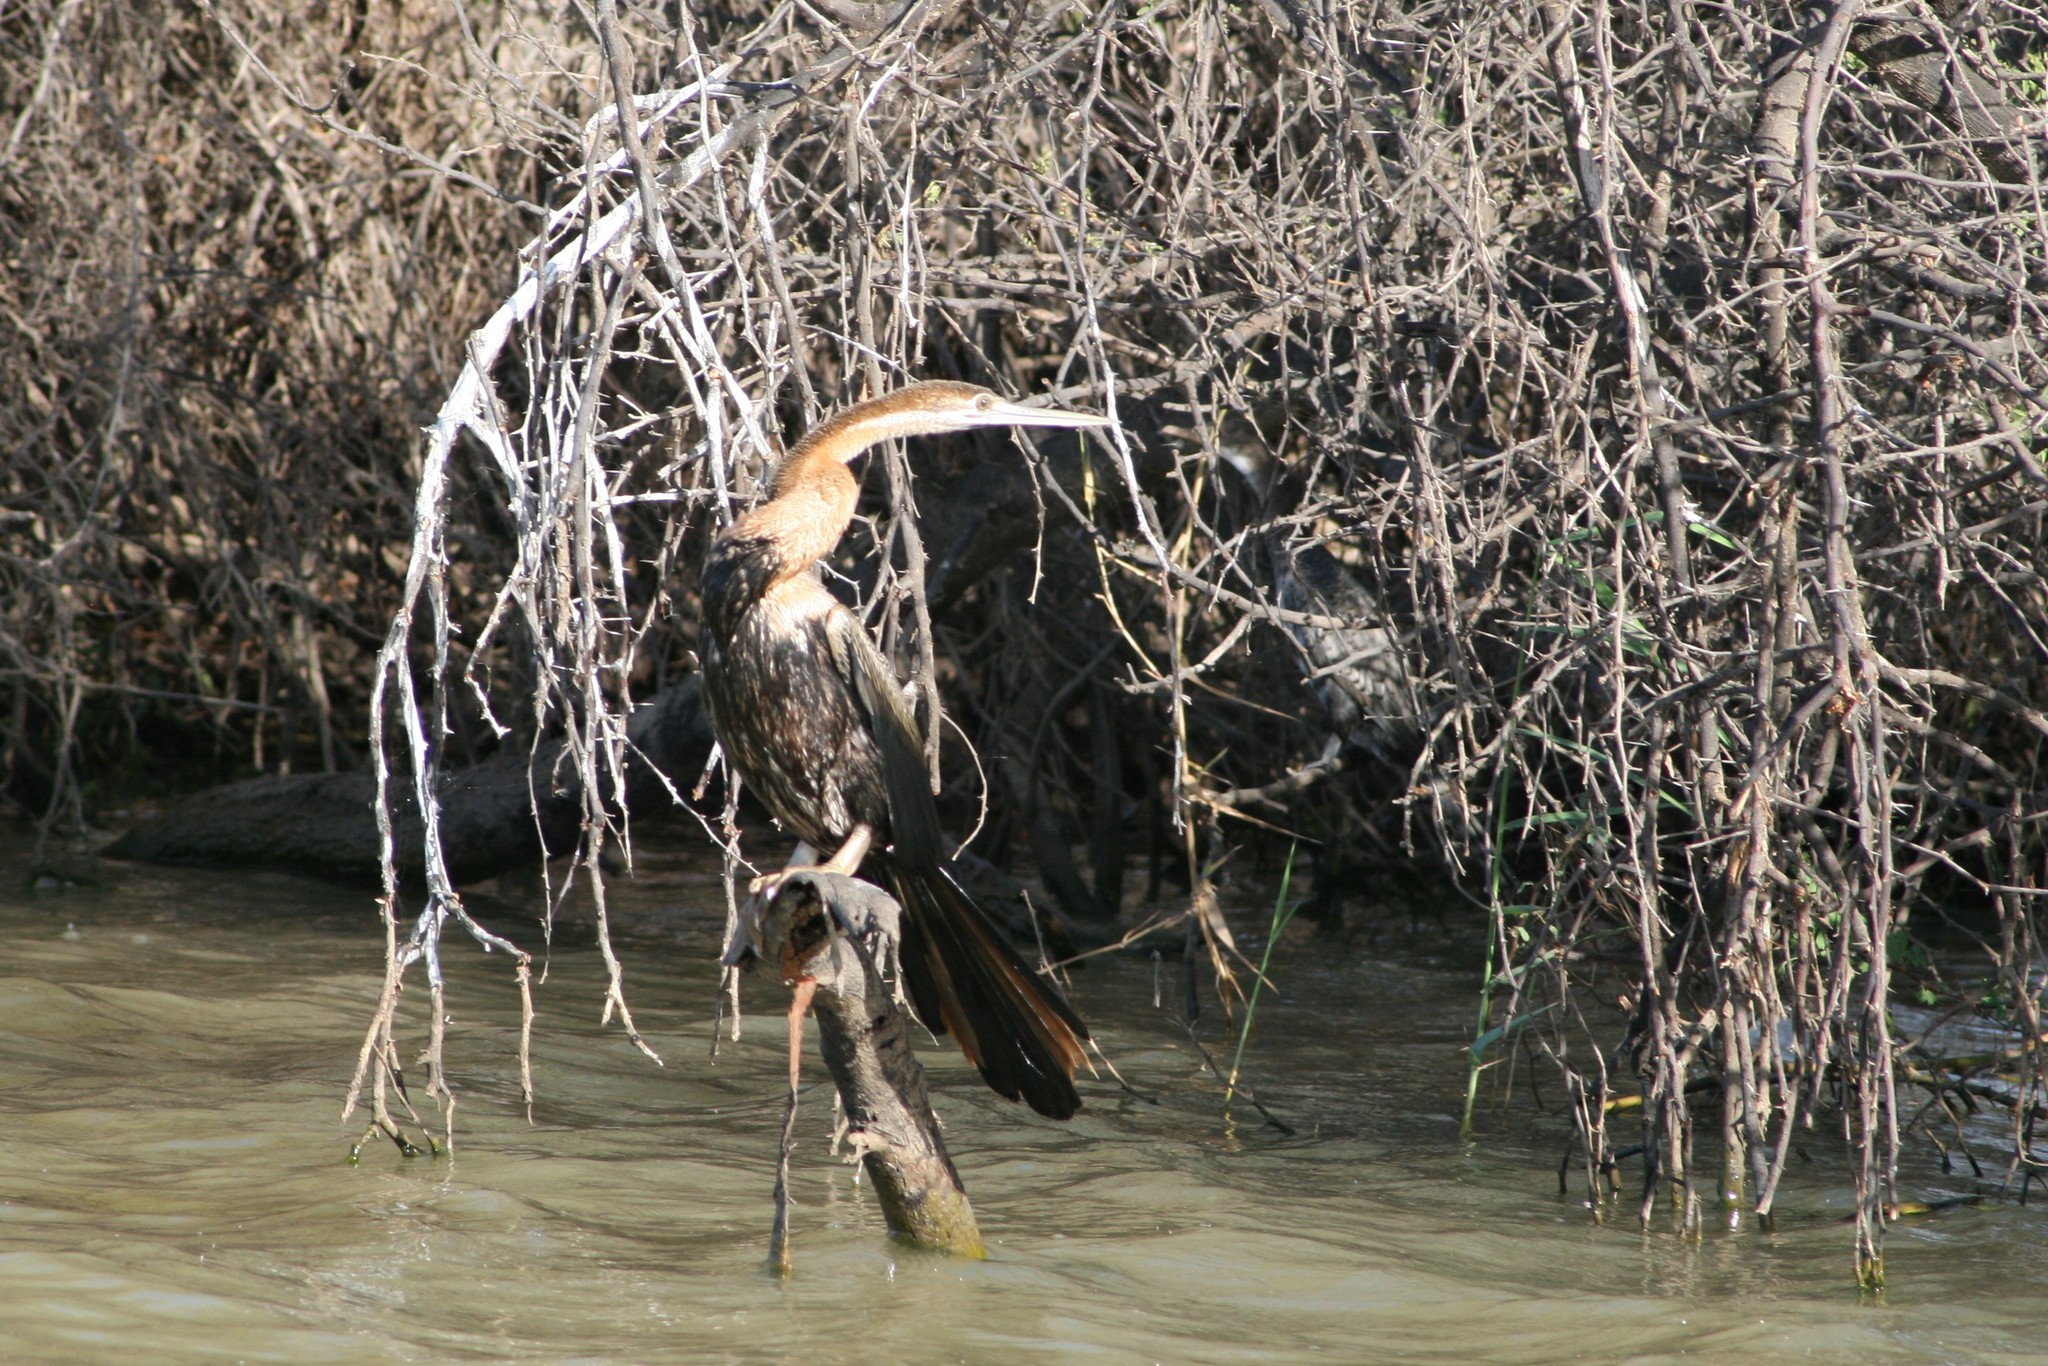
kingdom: Animalia
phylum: Chordata
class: Aves
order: Suliformes
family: Anhingidae
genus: Anhinga
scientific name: Anhinga rufa
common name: African darter
